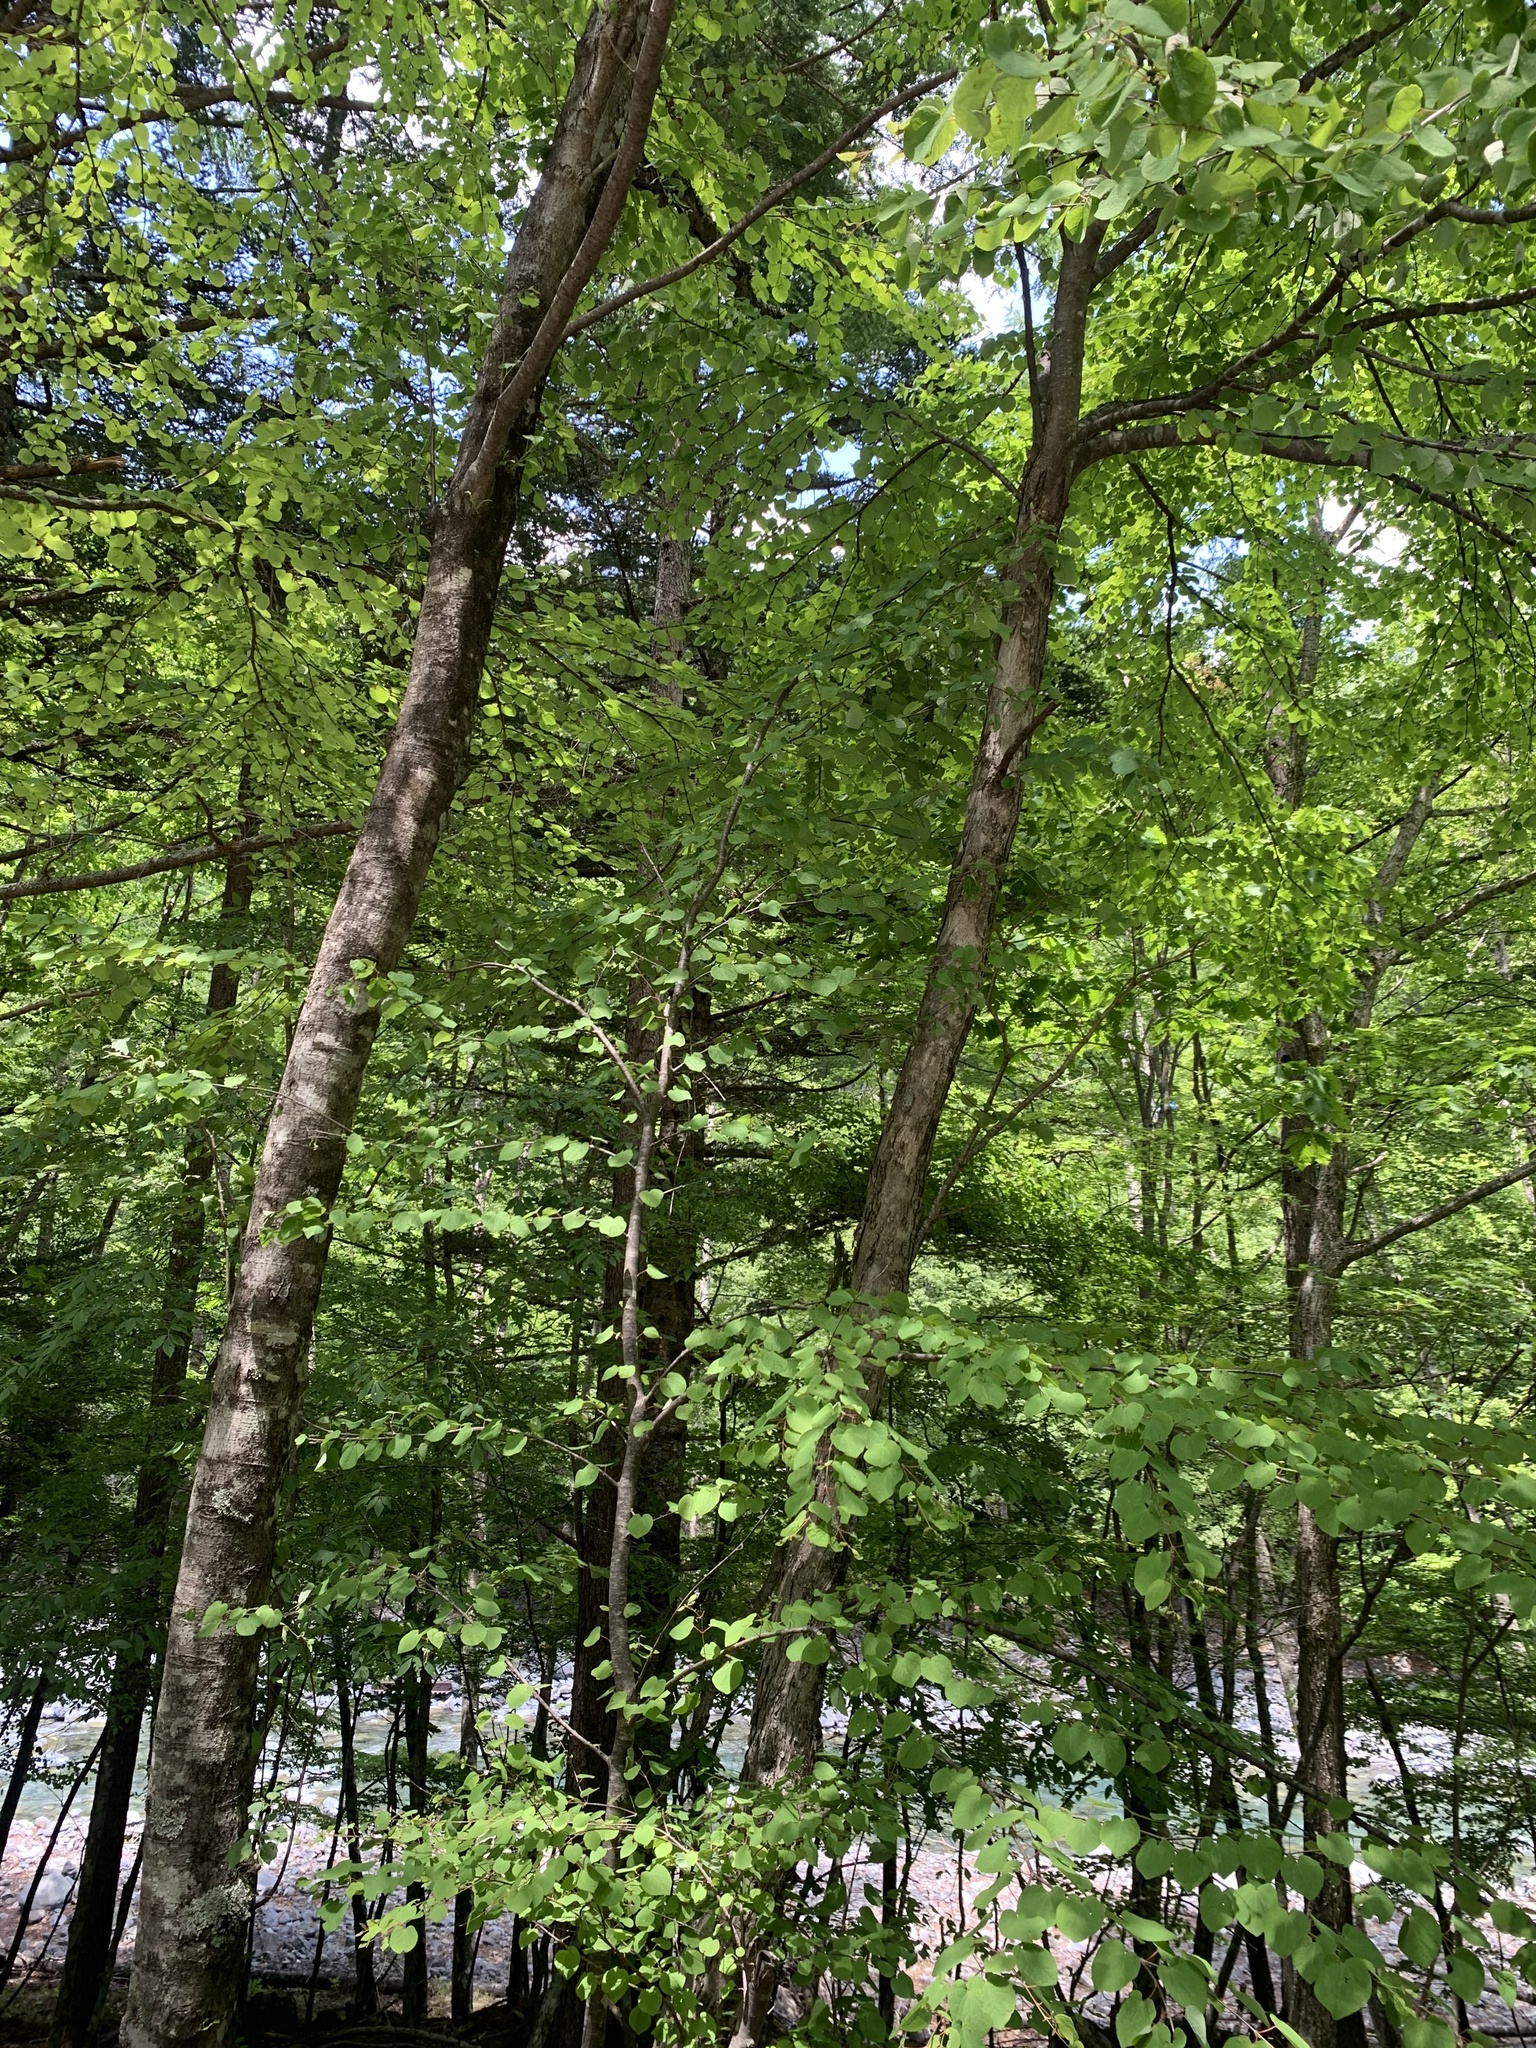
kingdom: Animalia
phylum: Arthropoda
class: Insecta
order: Hemiptera
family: Cicadidae
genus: Yezoterpnosia
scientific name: Yezoterpnosia nigricosta
